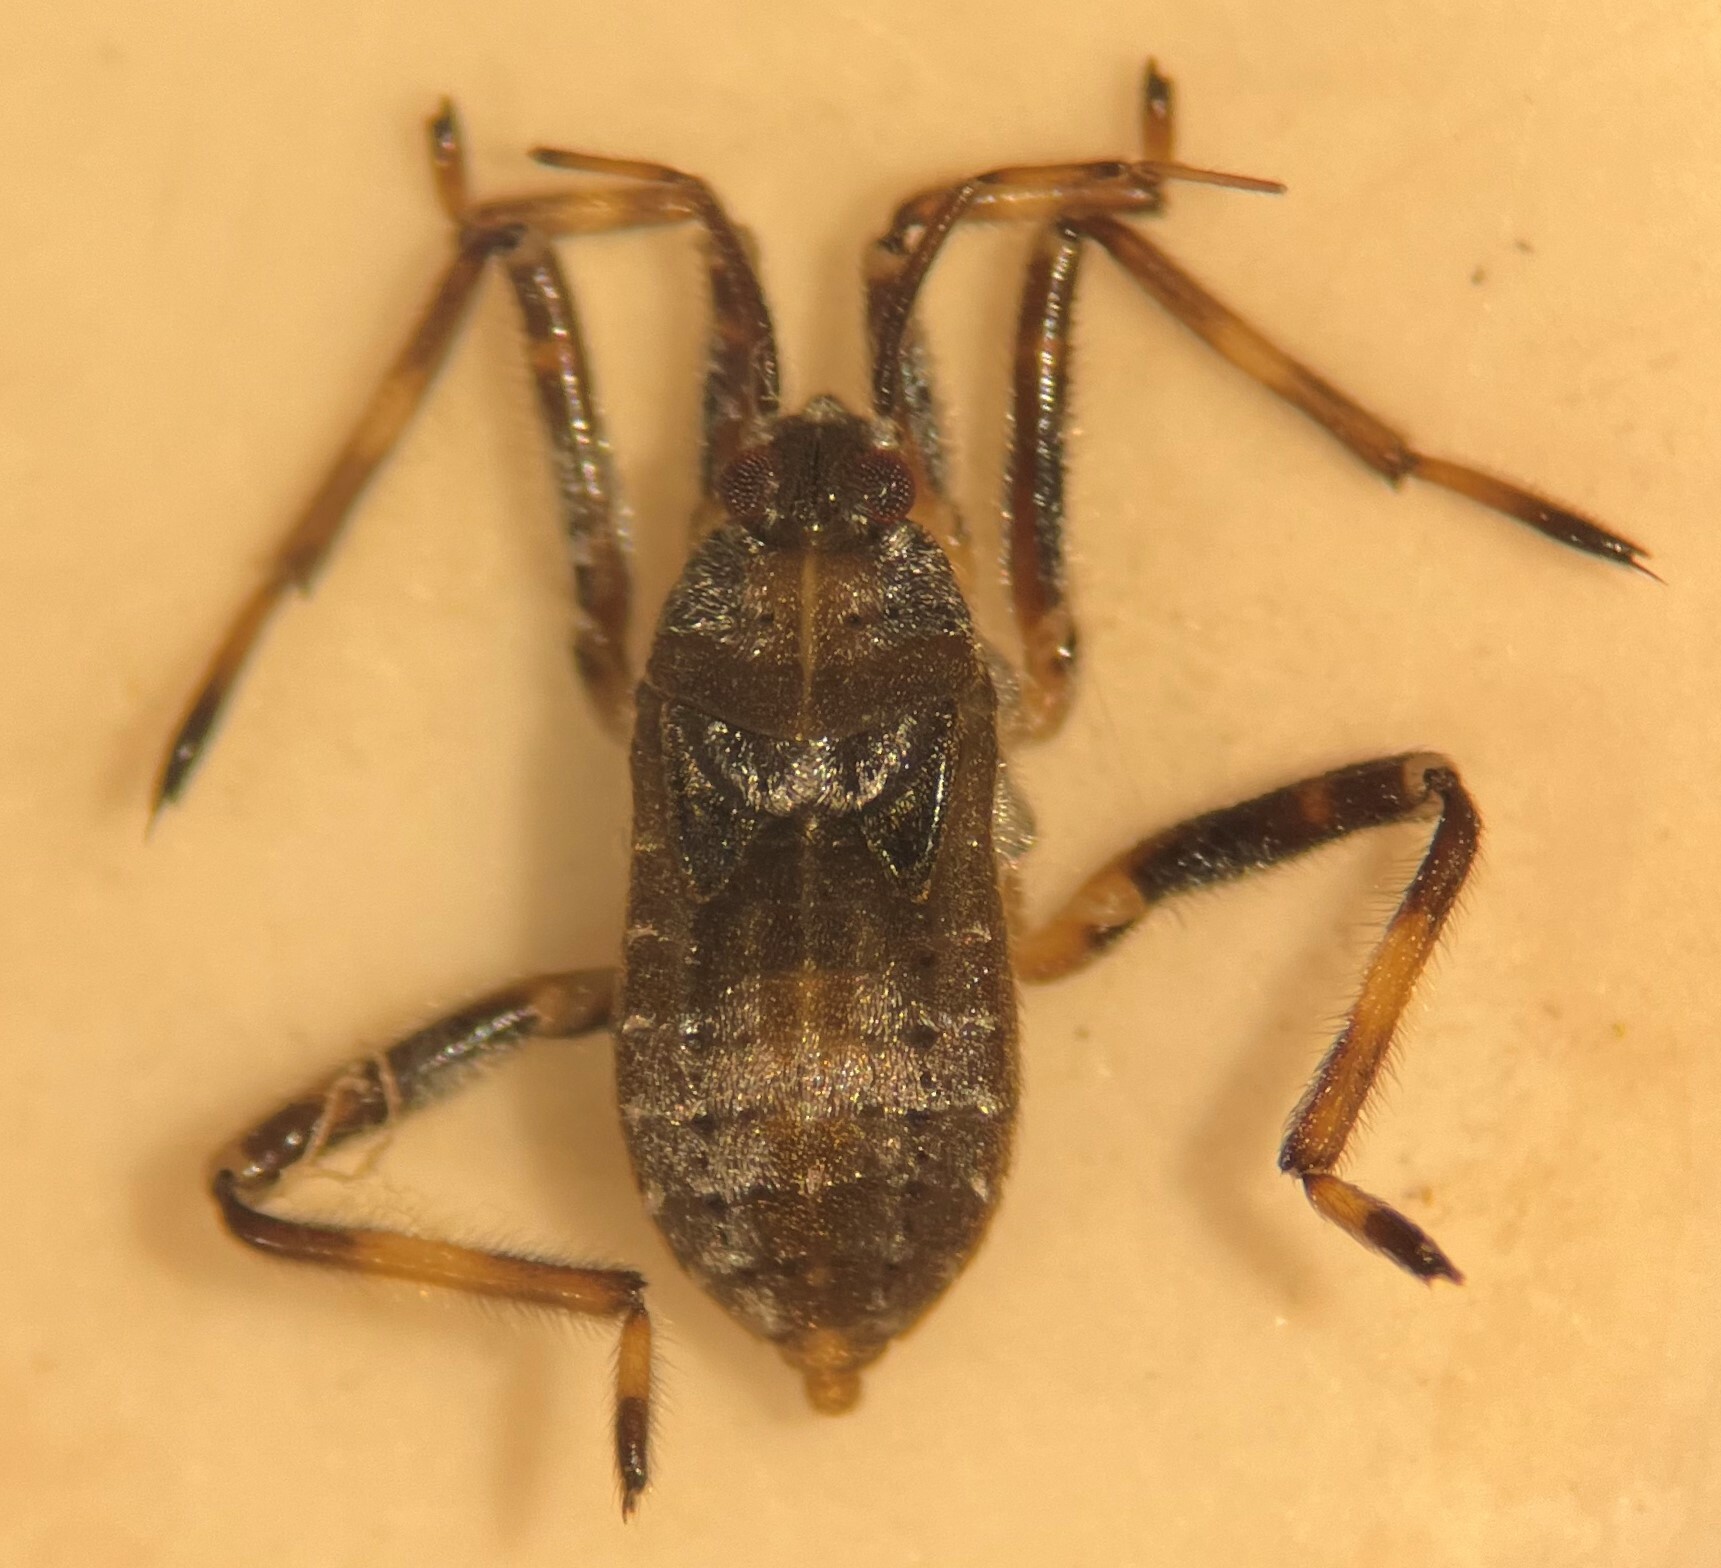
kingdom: Animalia
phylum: Arthropoda
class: Insecta
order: Hemiptera
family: Veliidae
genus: Platyvelia
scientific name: Platyvelia brachialis
